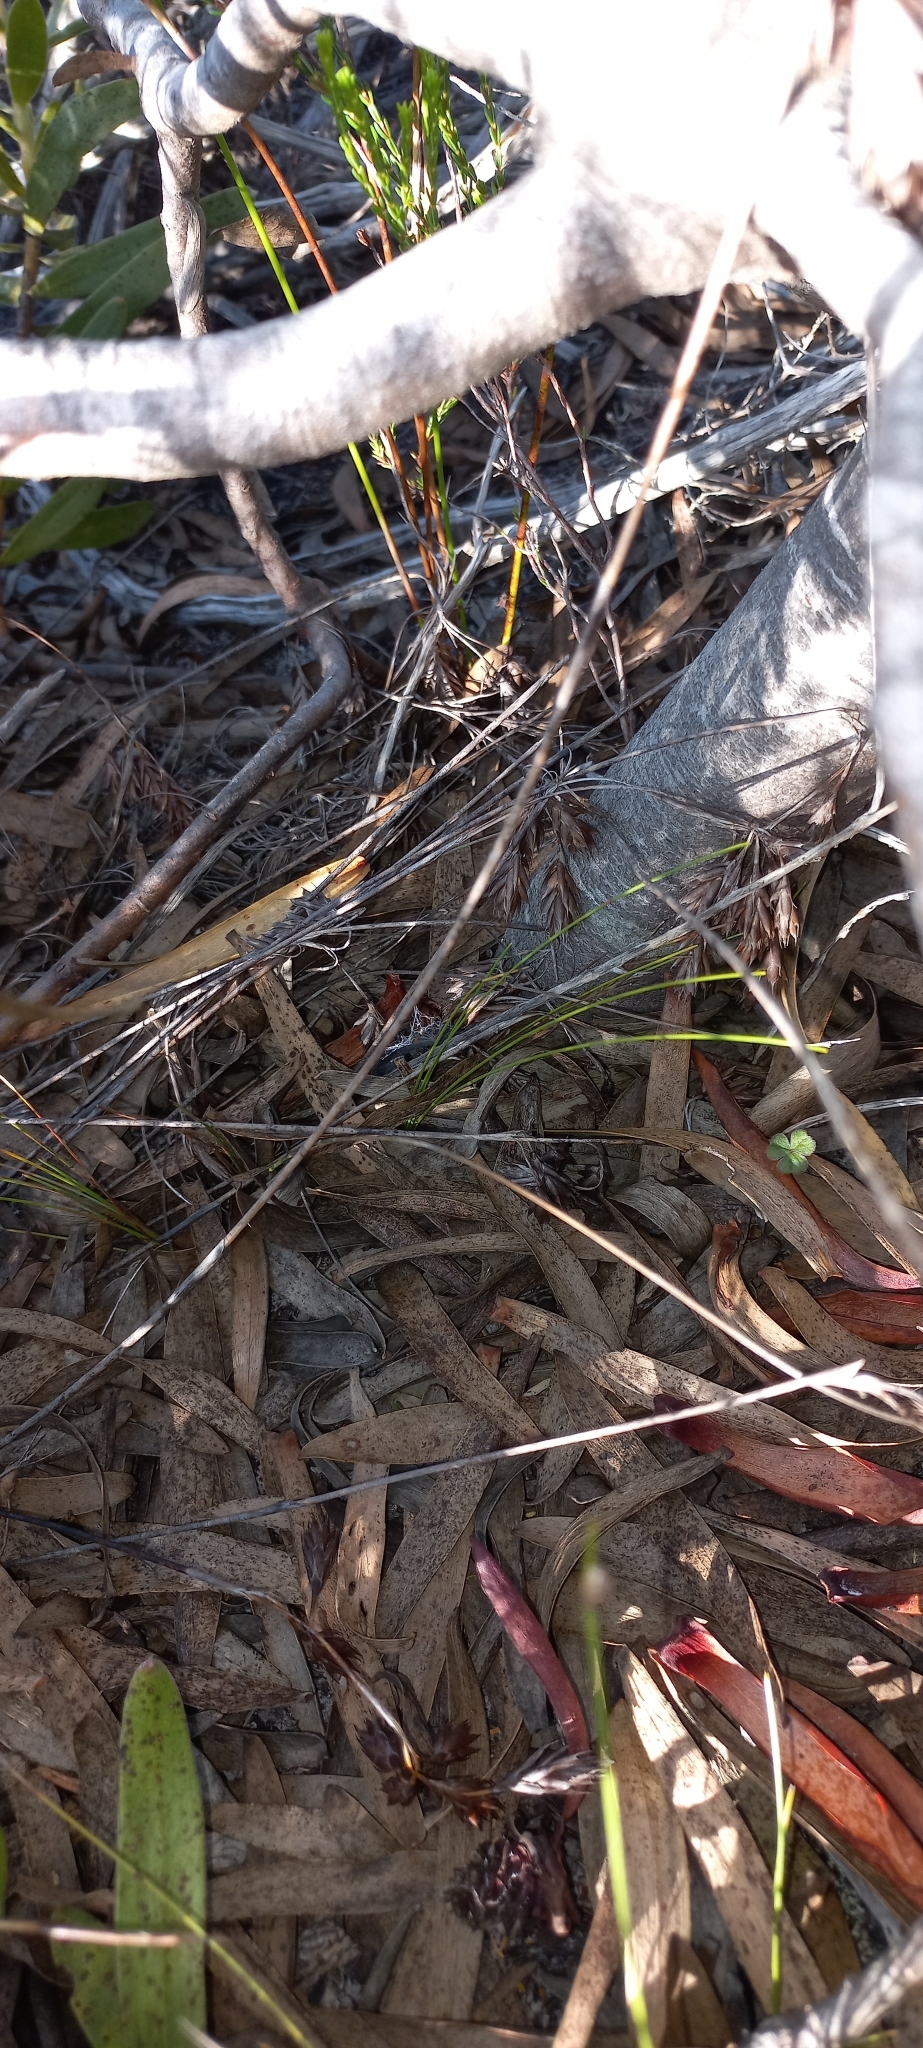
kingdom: Plantae
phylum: Tracheophyta
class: Magnoliopsida
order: Proteales
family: Proteaceae
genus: Leucadendron
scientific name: Leucadendron laureolum
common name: Golden sunshinebush
